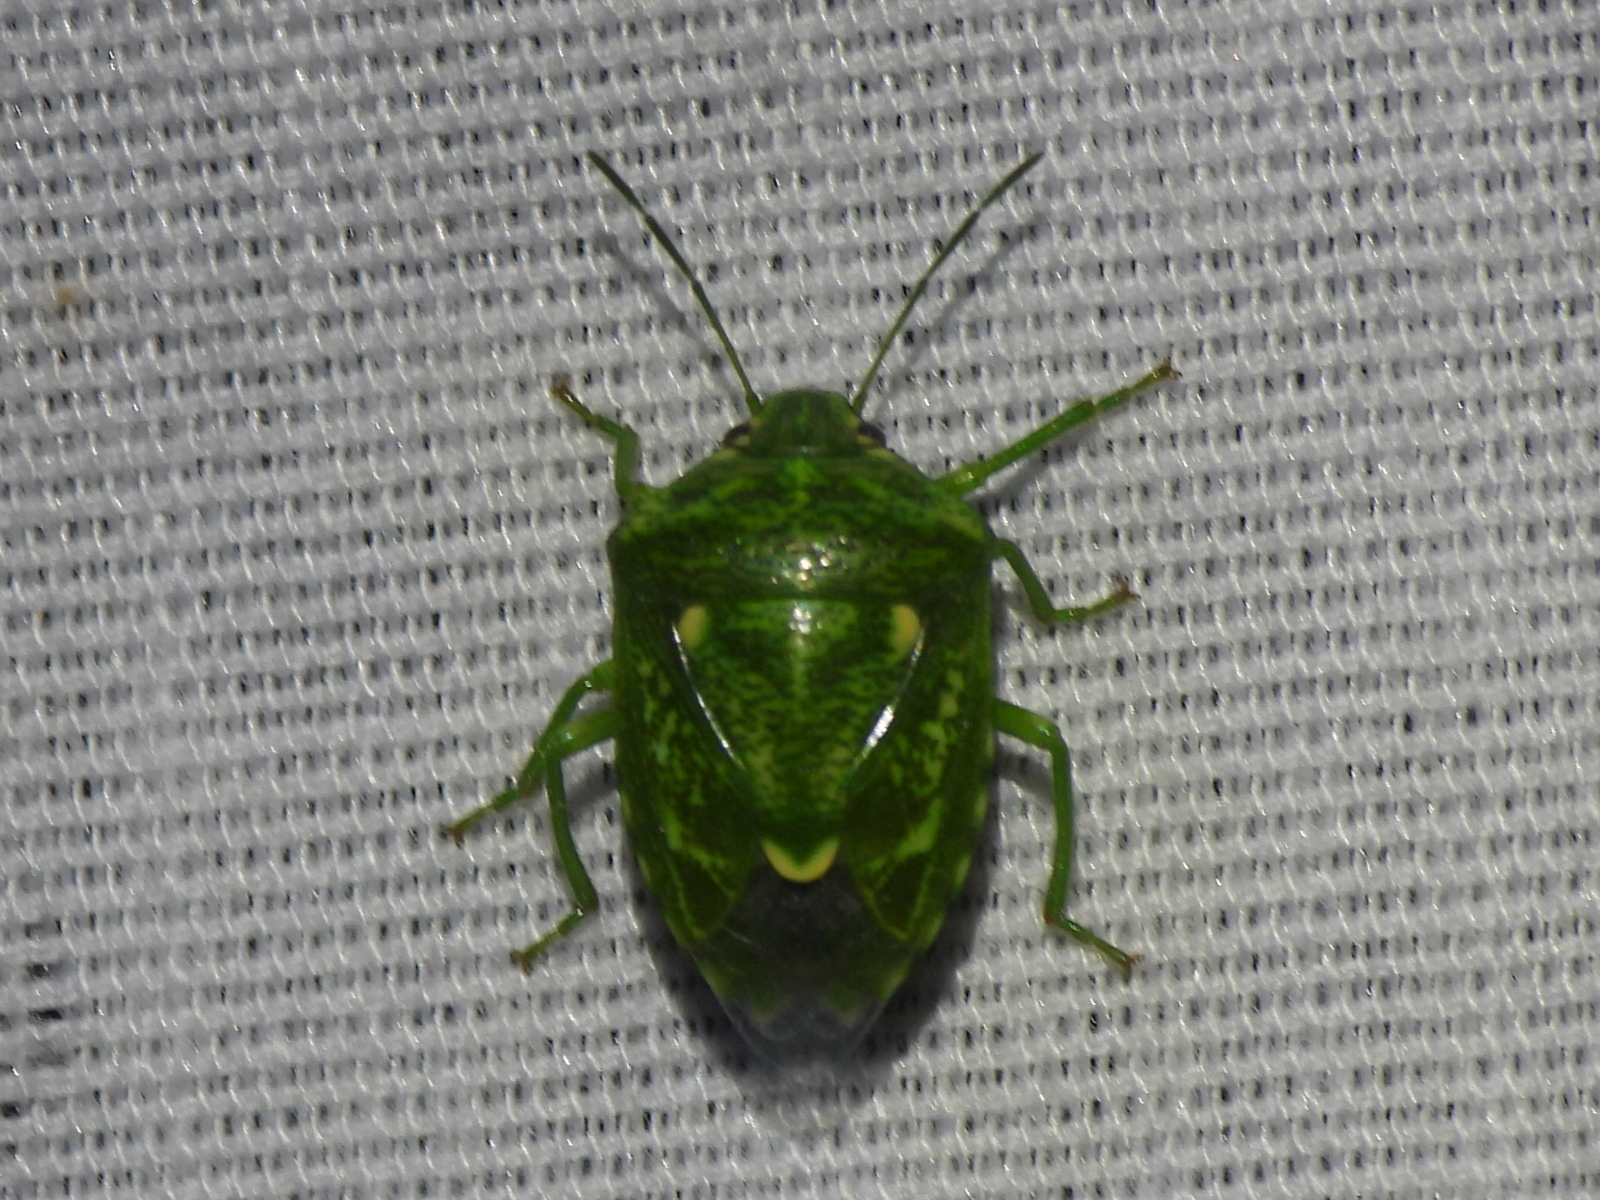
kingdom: Animalia
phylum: Arthropoda
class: Insecta
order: Hemiptera
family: Pentatomidae
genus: Banasa
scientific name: Banasa euchlora
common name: Cedar berry bug
